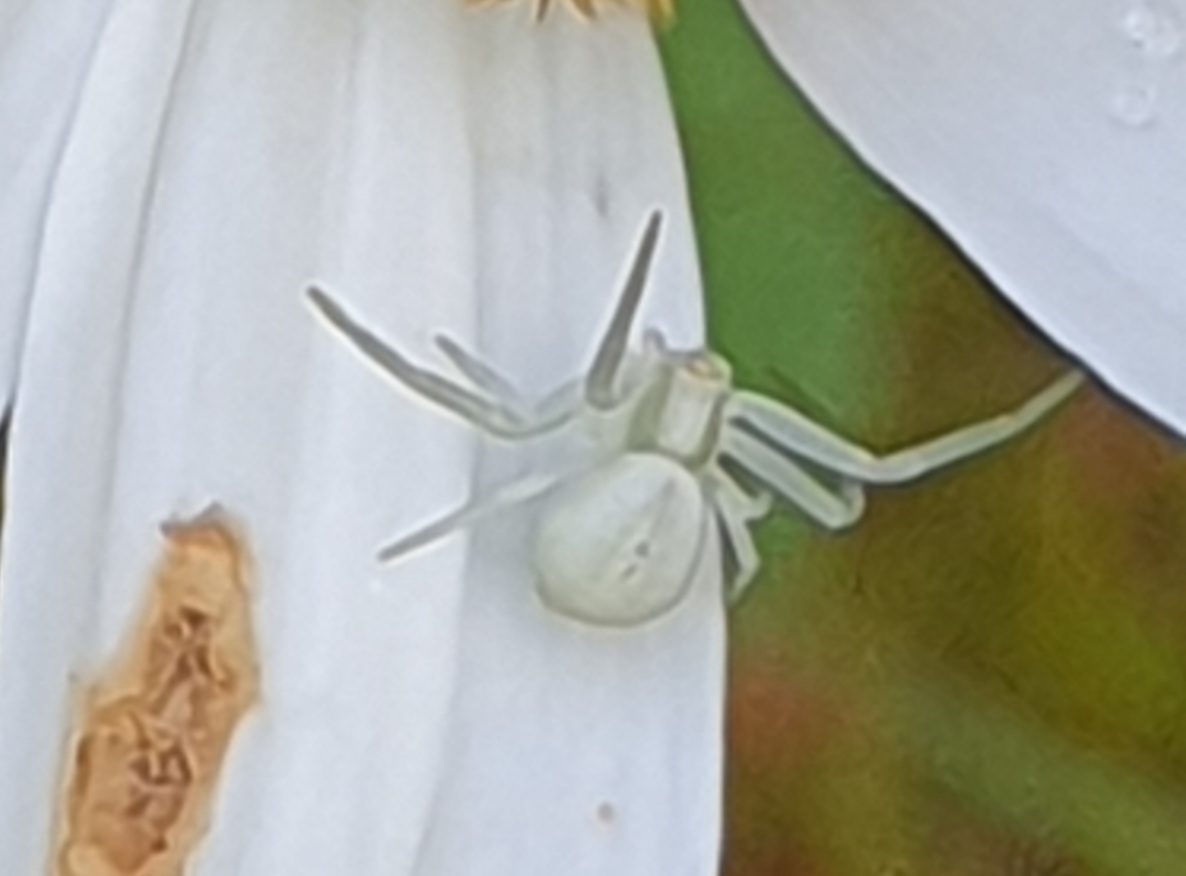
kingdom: Animalia
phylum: Arthropoda
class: Arachnida
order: Araneae
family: Thomisidae
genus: Misumena
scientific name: Misumena vatia
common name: Goldenrod crab spider
